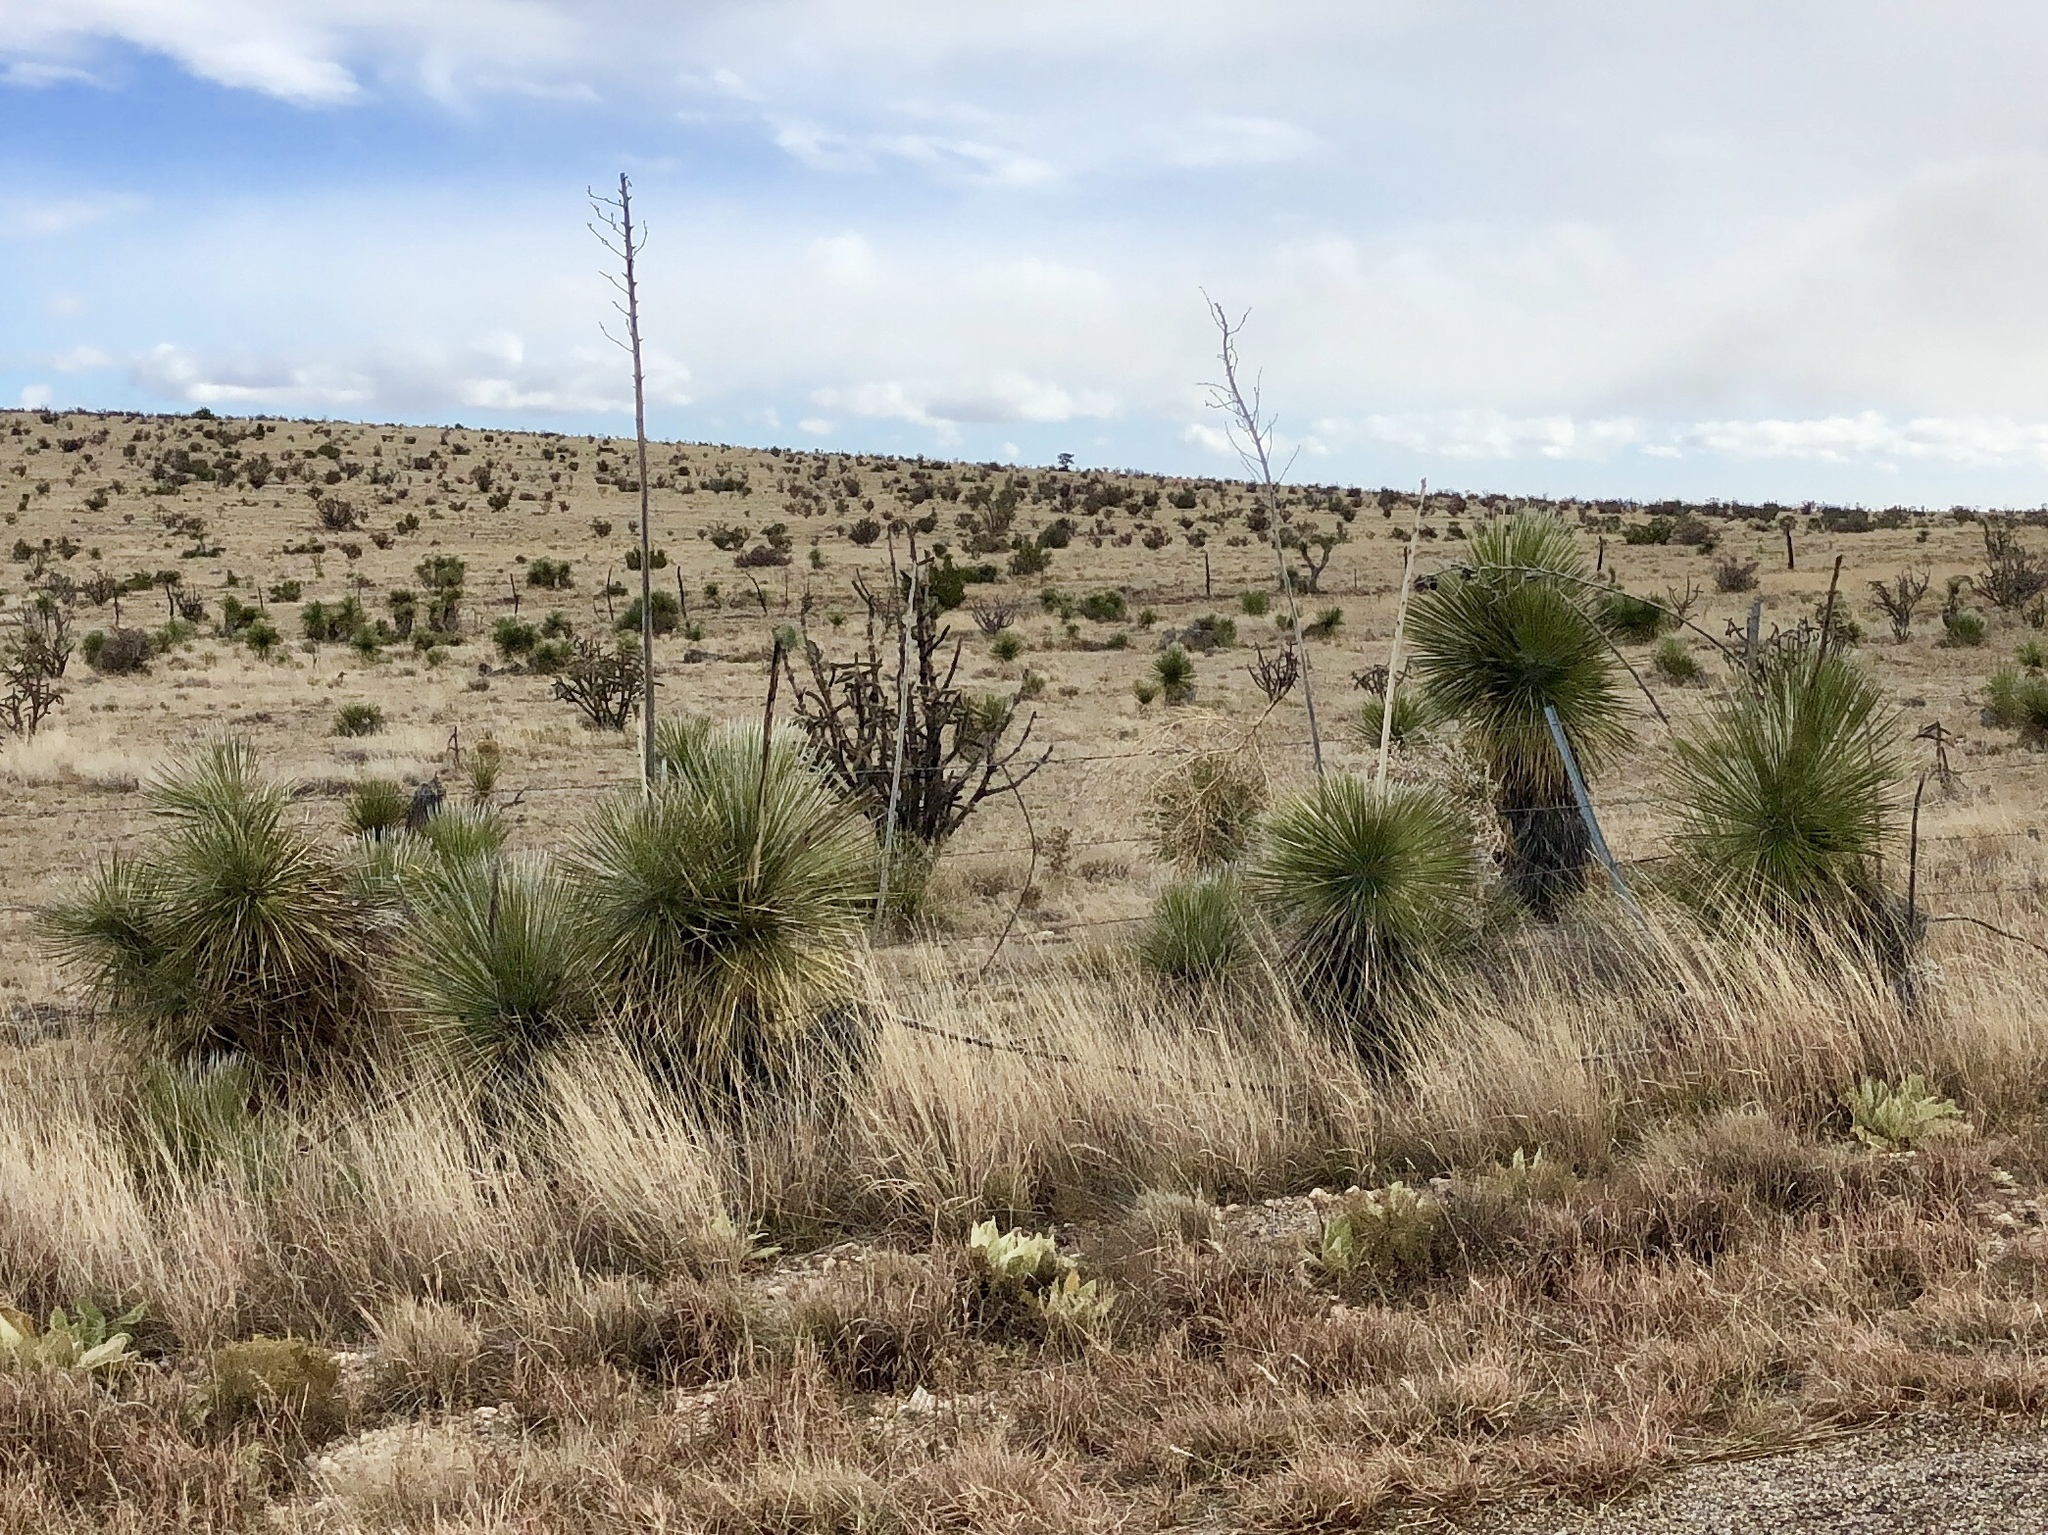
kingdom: Plantae
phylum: Tracheophyta
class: Liliopsida
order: Asparagales
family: Asparagaceae
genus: Yucca
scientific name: Yucca elata
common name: Palmella
